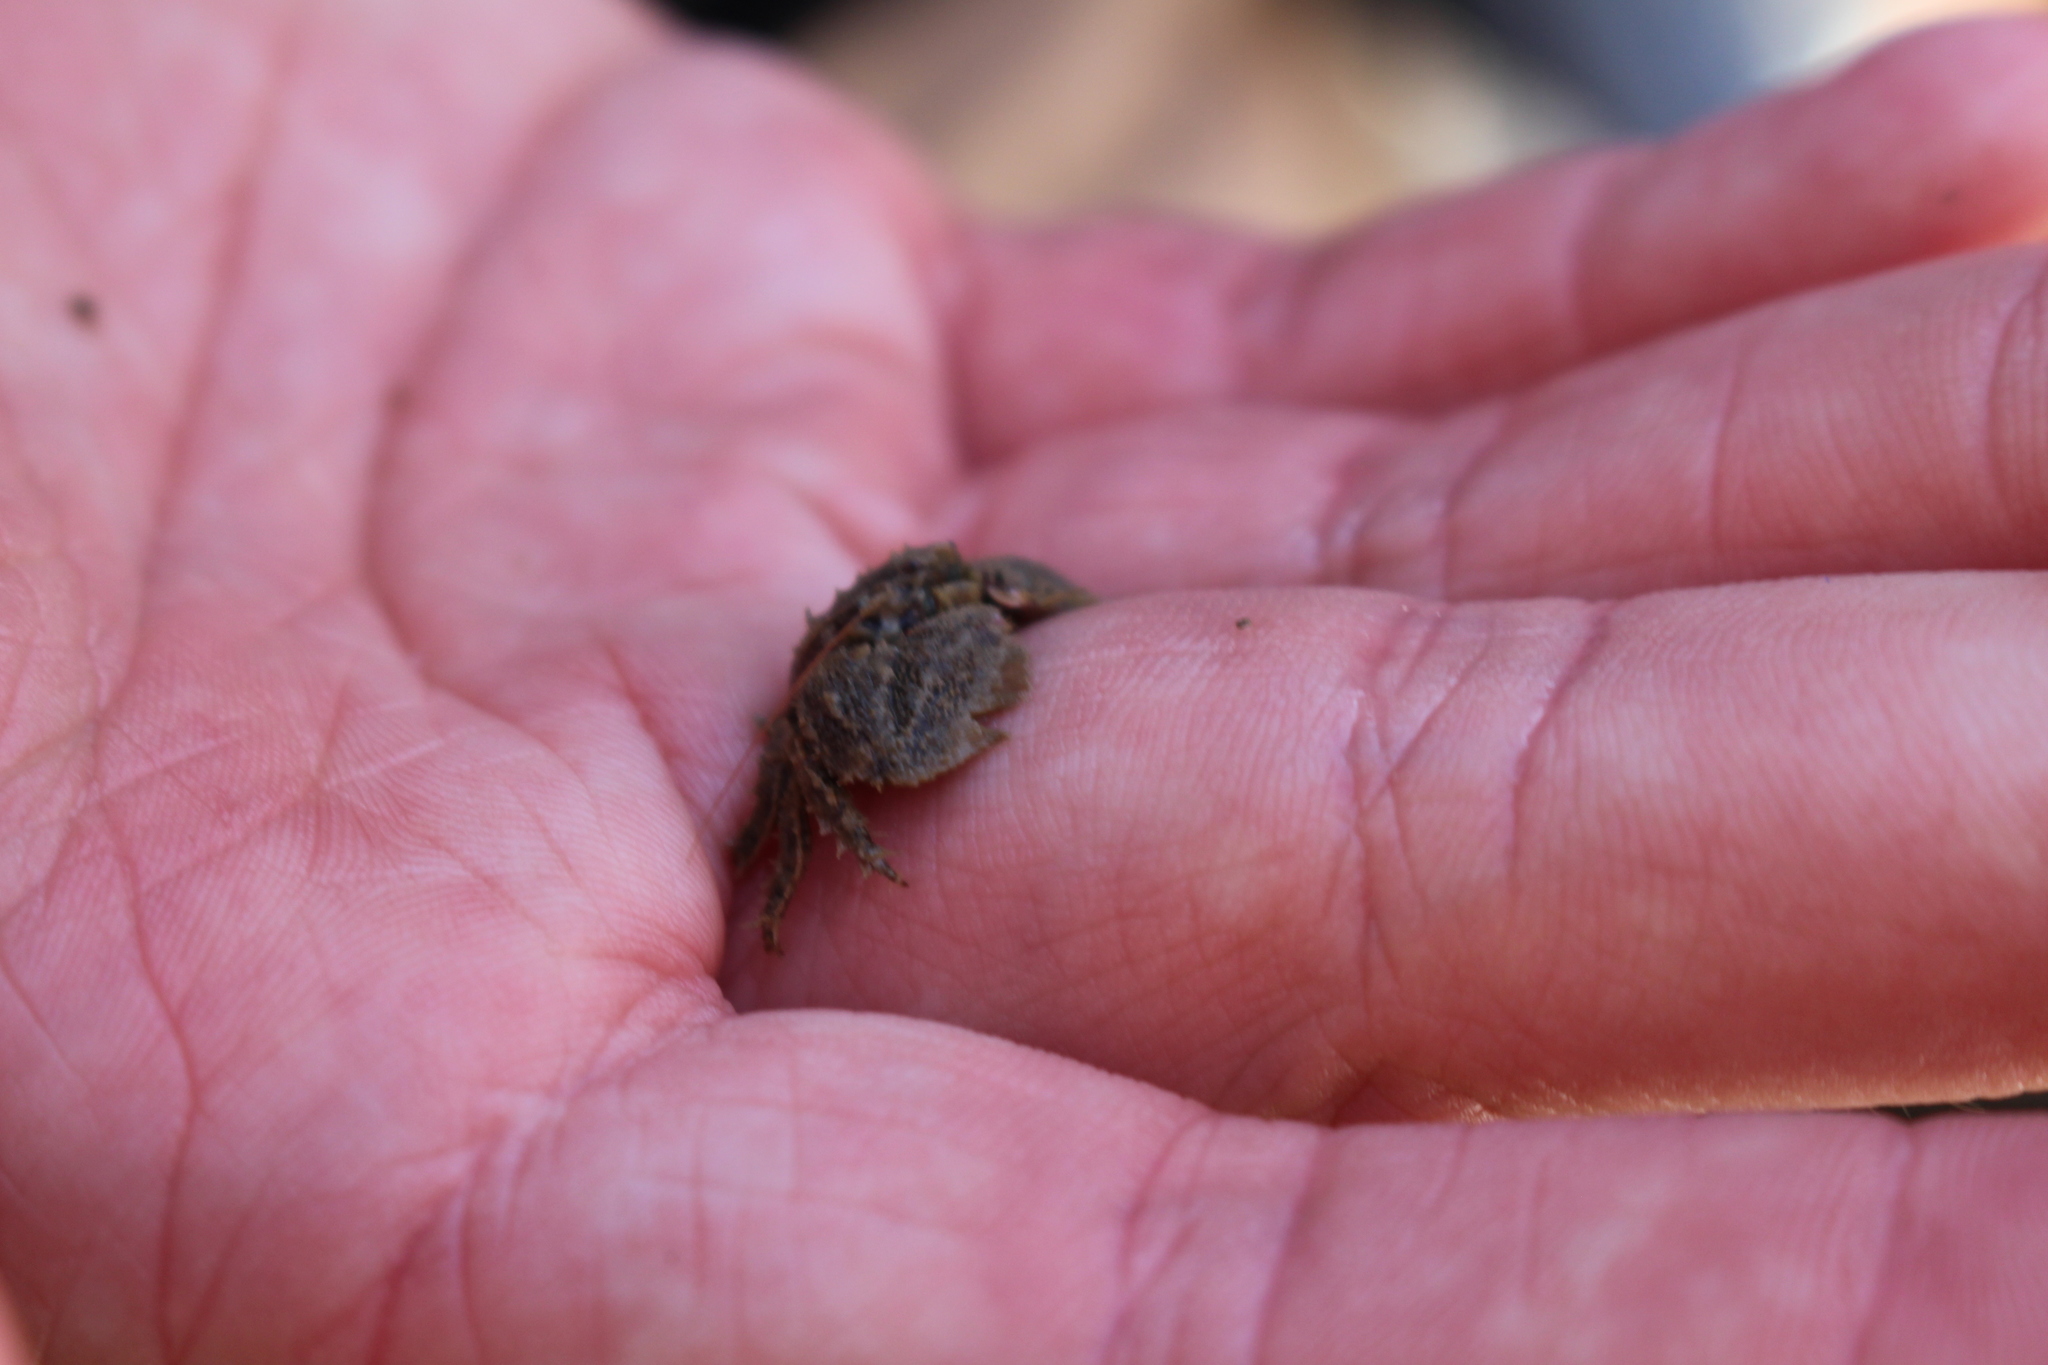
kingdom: Animalia
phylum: Arthropoda
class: Malacostraca
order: Decapoda
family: Porcellanidae
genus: Porcellana
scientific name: Porcellana platycheles
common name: Porcelain crab
